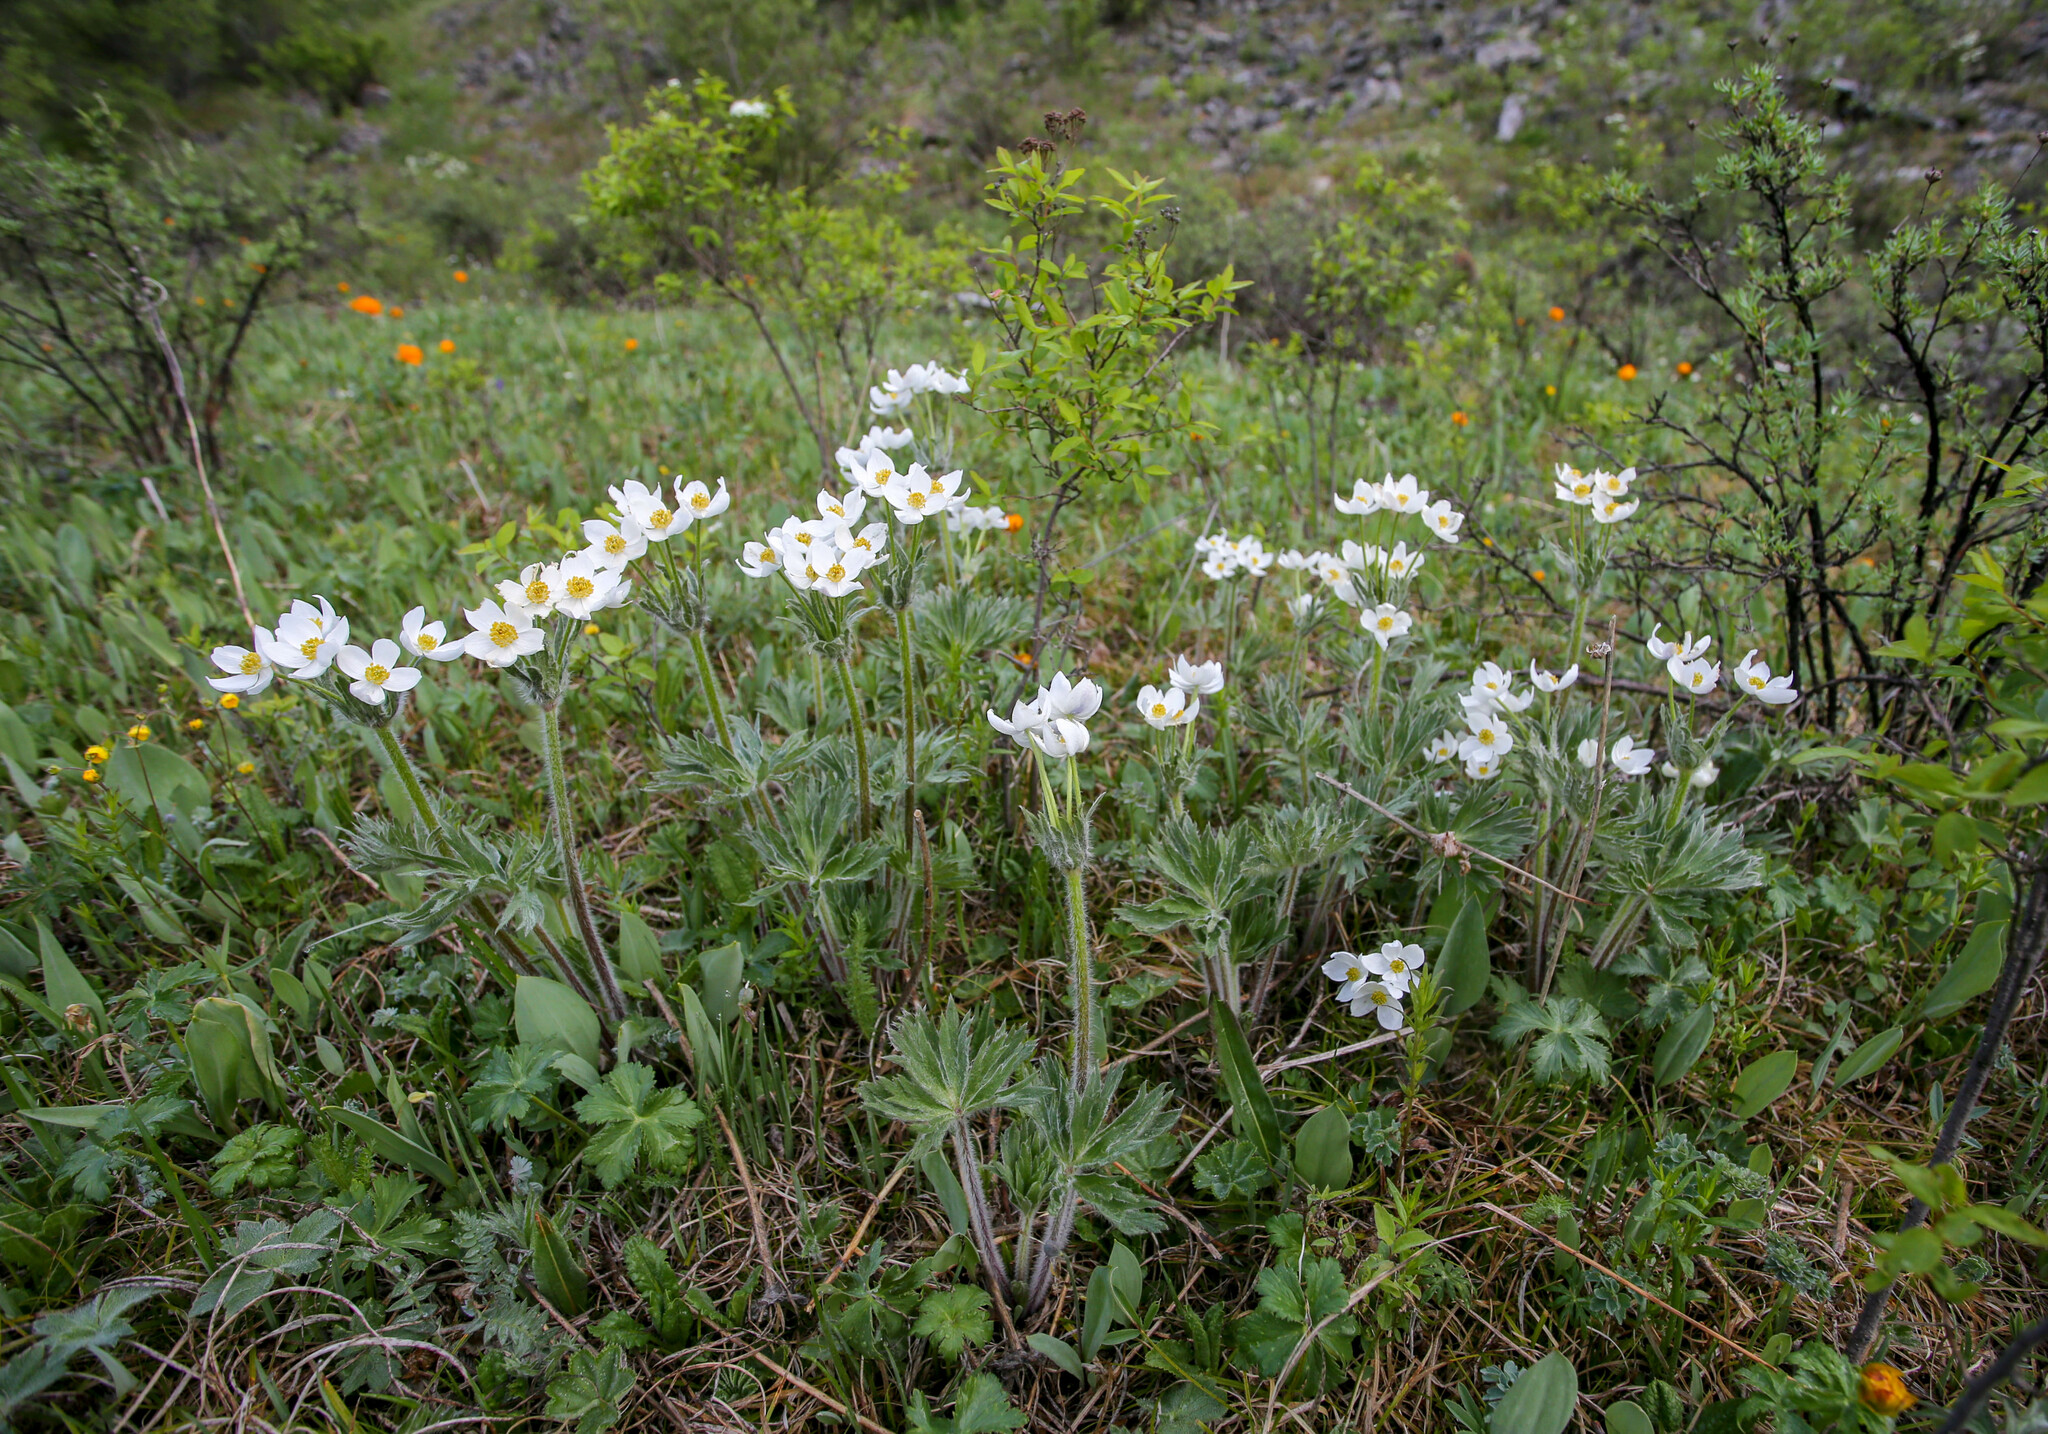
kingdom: Plantae
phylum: Tracheophyta
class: Magnoliopsida
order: Ranunculales
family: Ranunculaceae
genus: Anemonastrum
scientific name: Anemonastrum narcissiflorum
